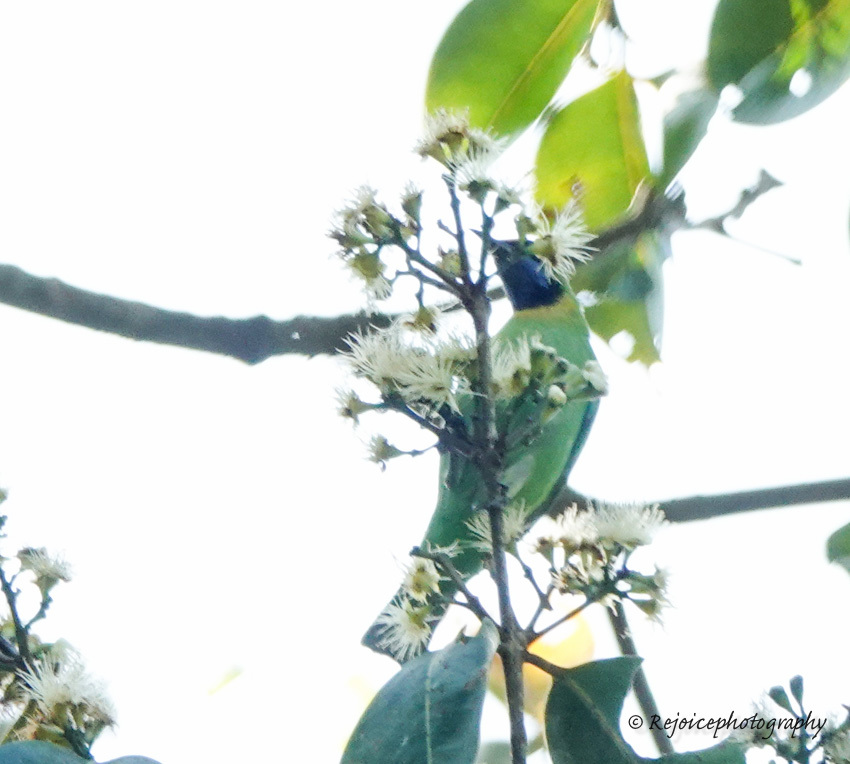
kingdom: Animalia
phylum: Chordata
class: Aves
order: Passeriformes
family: Chloropseidae
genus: Chloropsis
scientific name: Chloropsis aurifrons
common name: Golden-fronted leafbird
